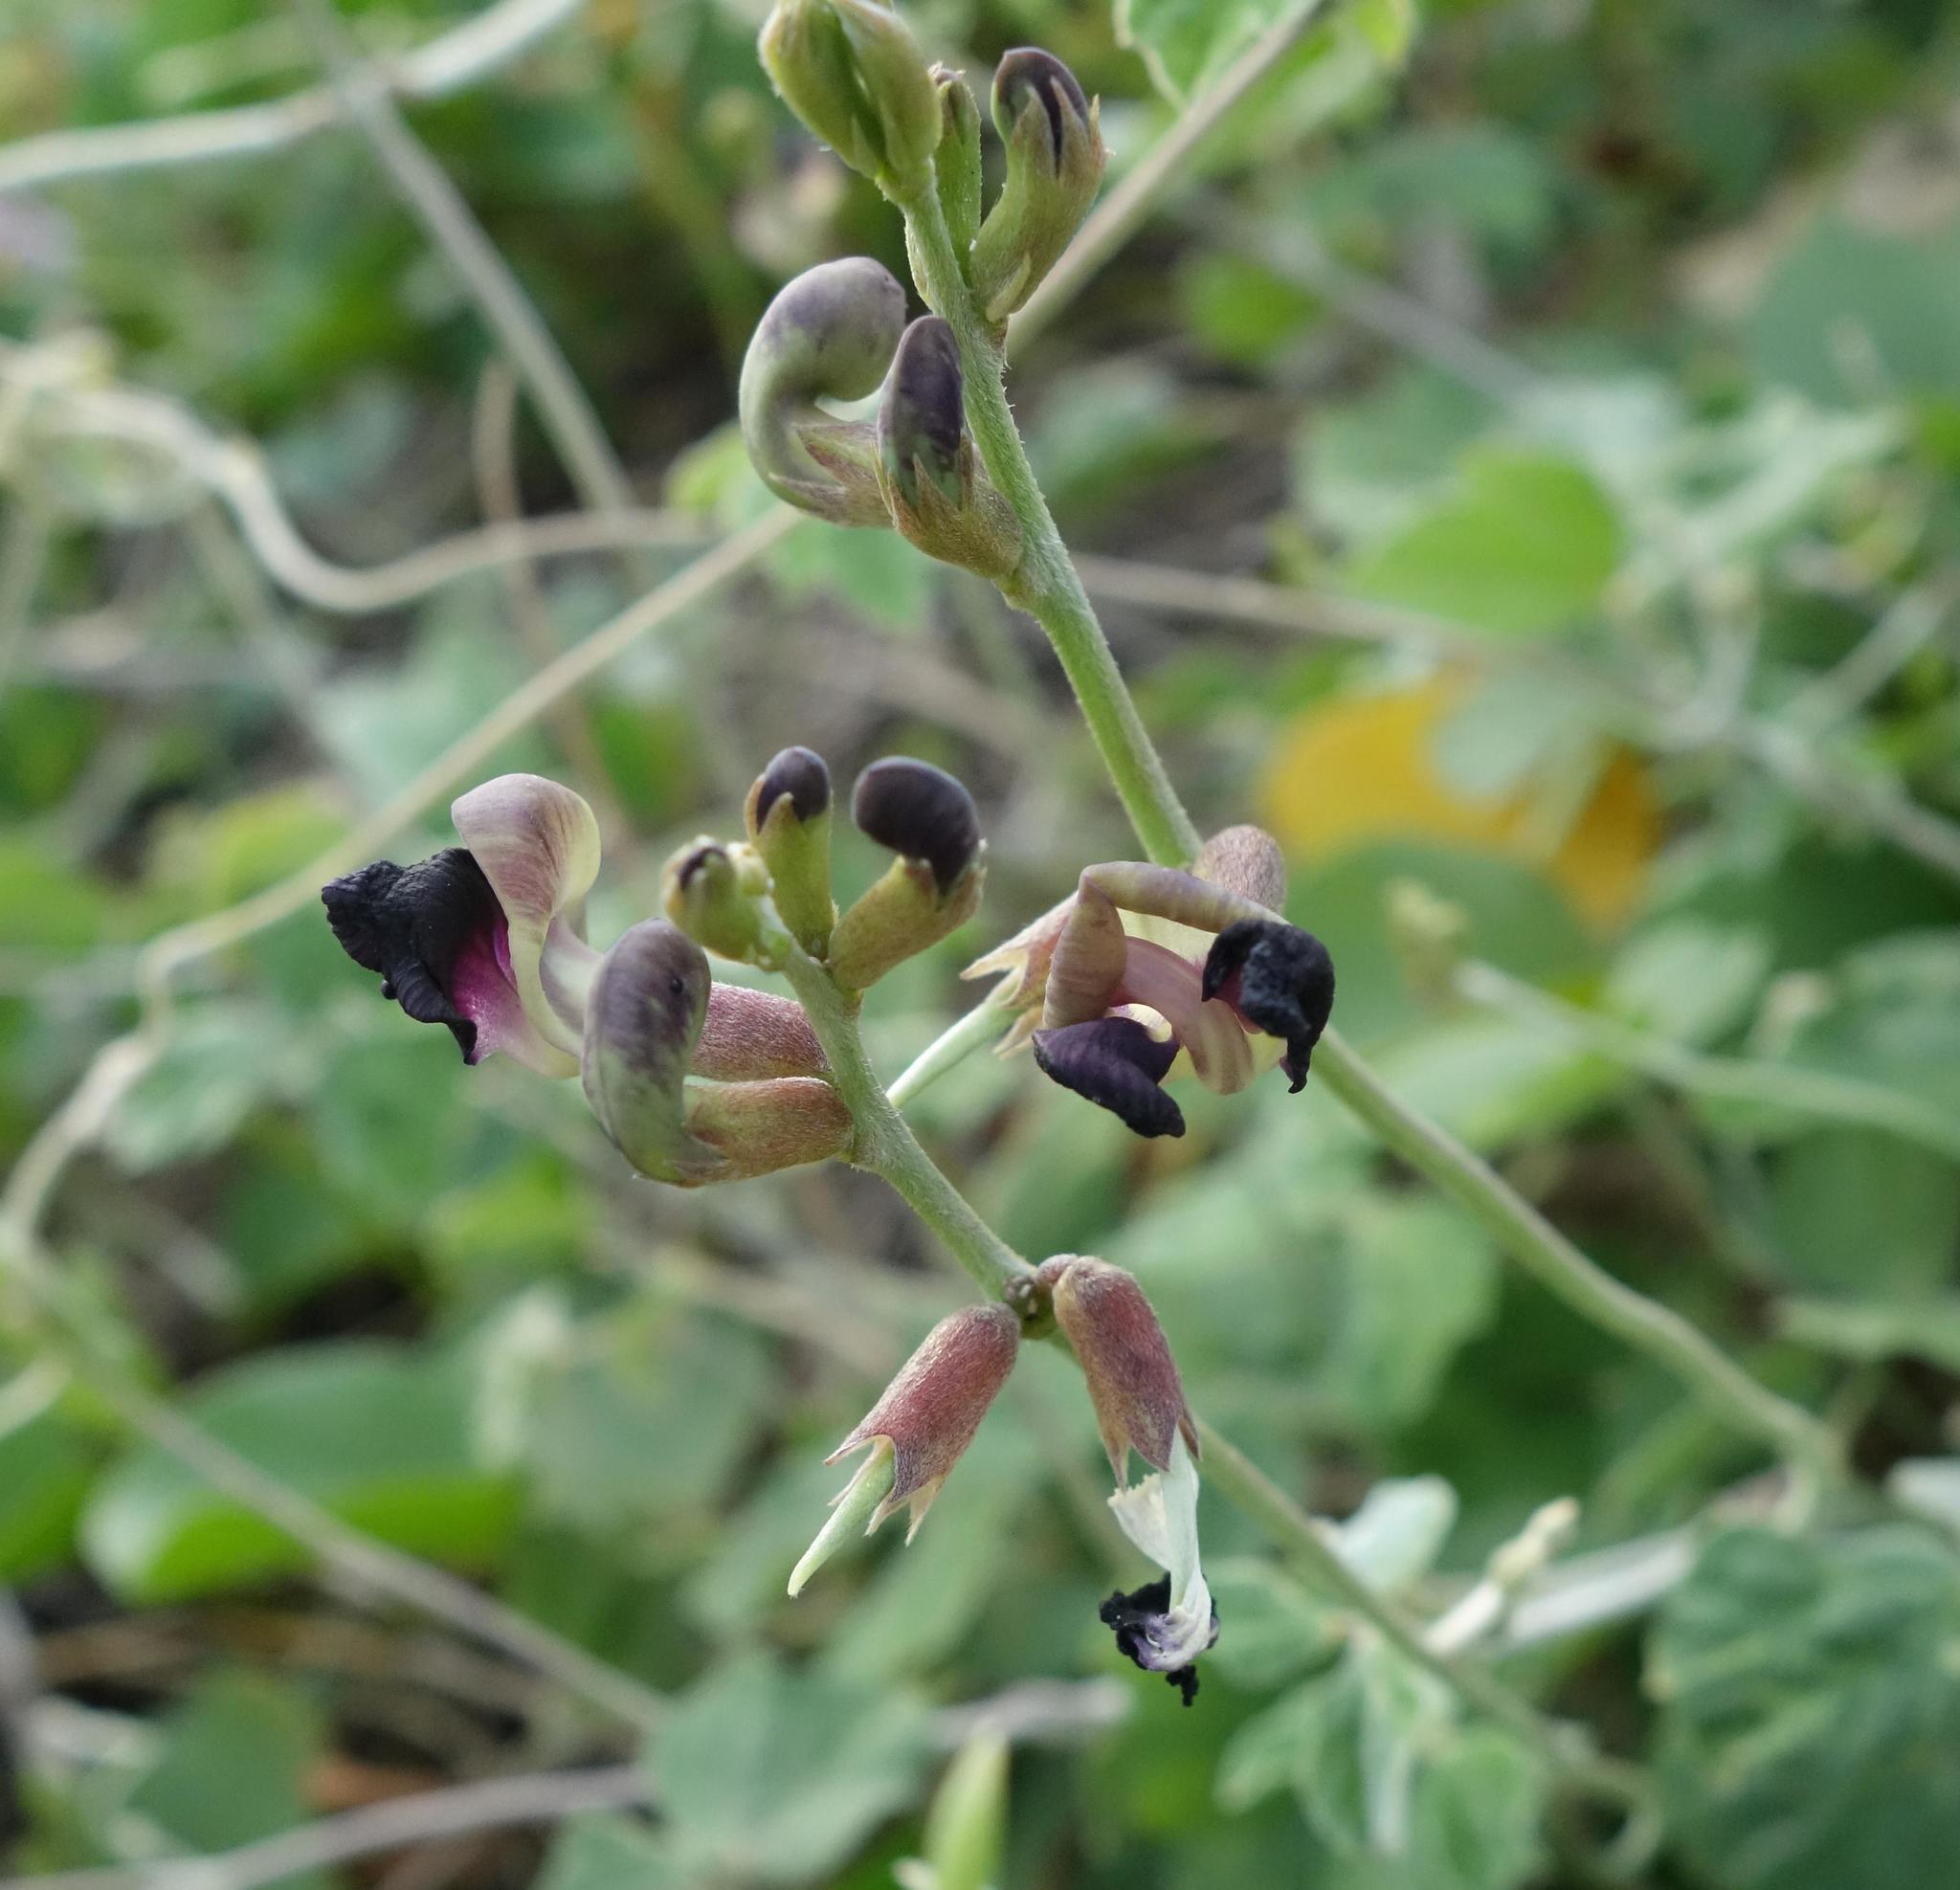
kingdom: Plantae
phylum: Tracheophyta
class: Magnoliopsida
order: Fabales
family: Fabaceae
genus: Macroptilium
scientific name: Macroptilium atropurpureum
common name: Purple bushbean
